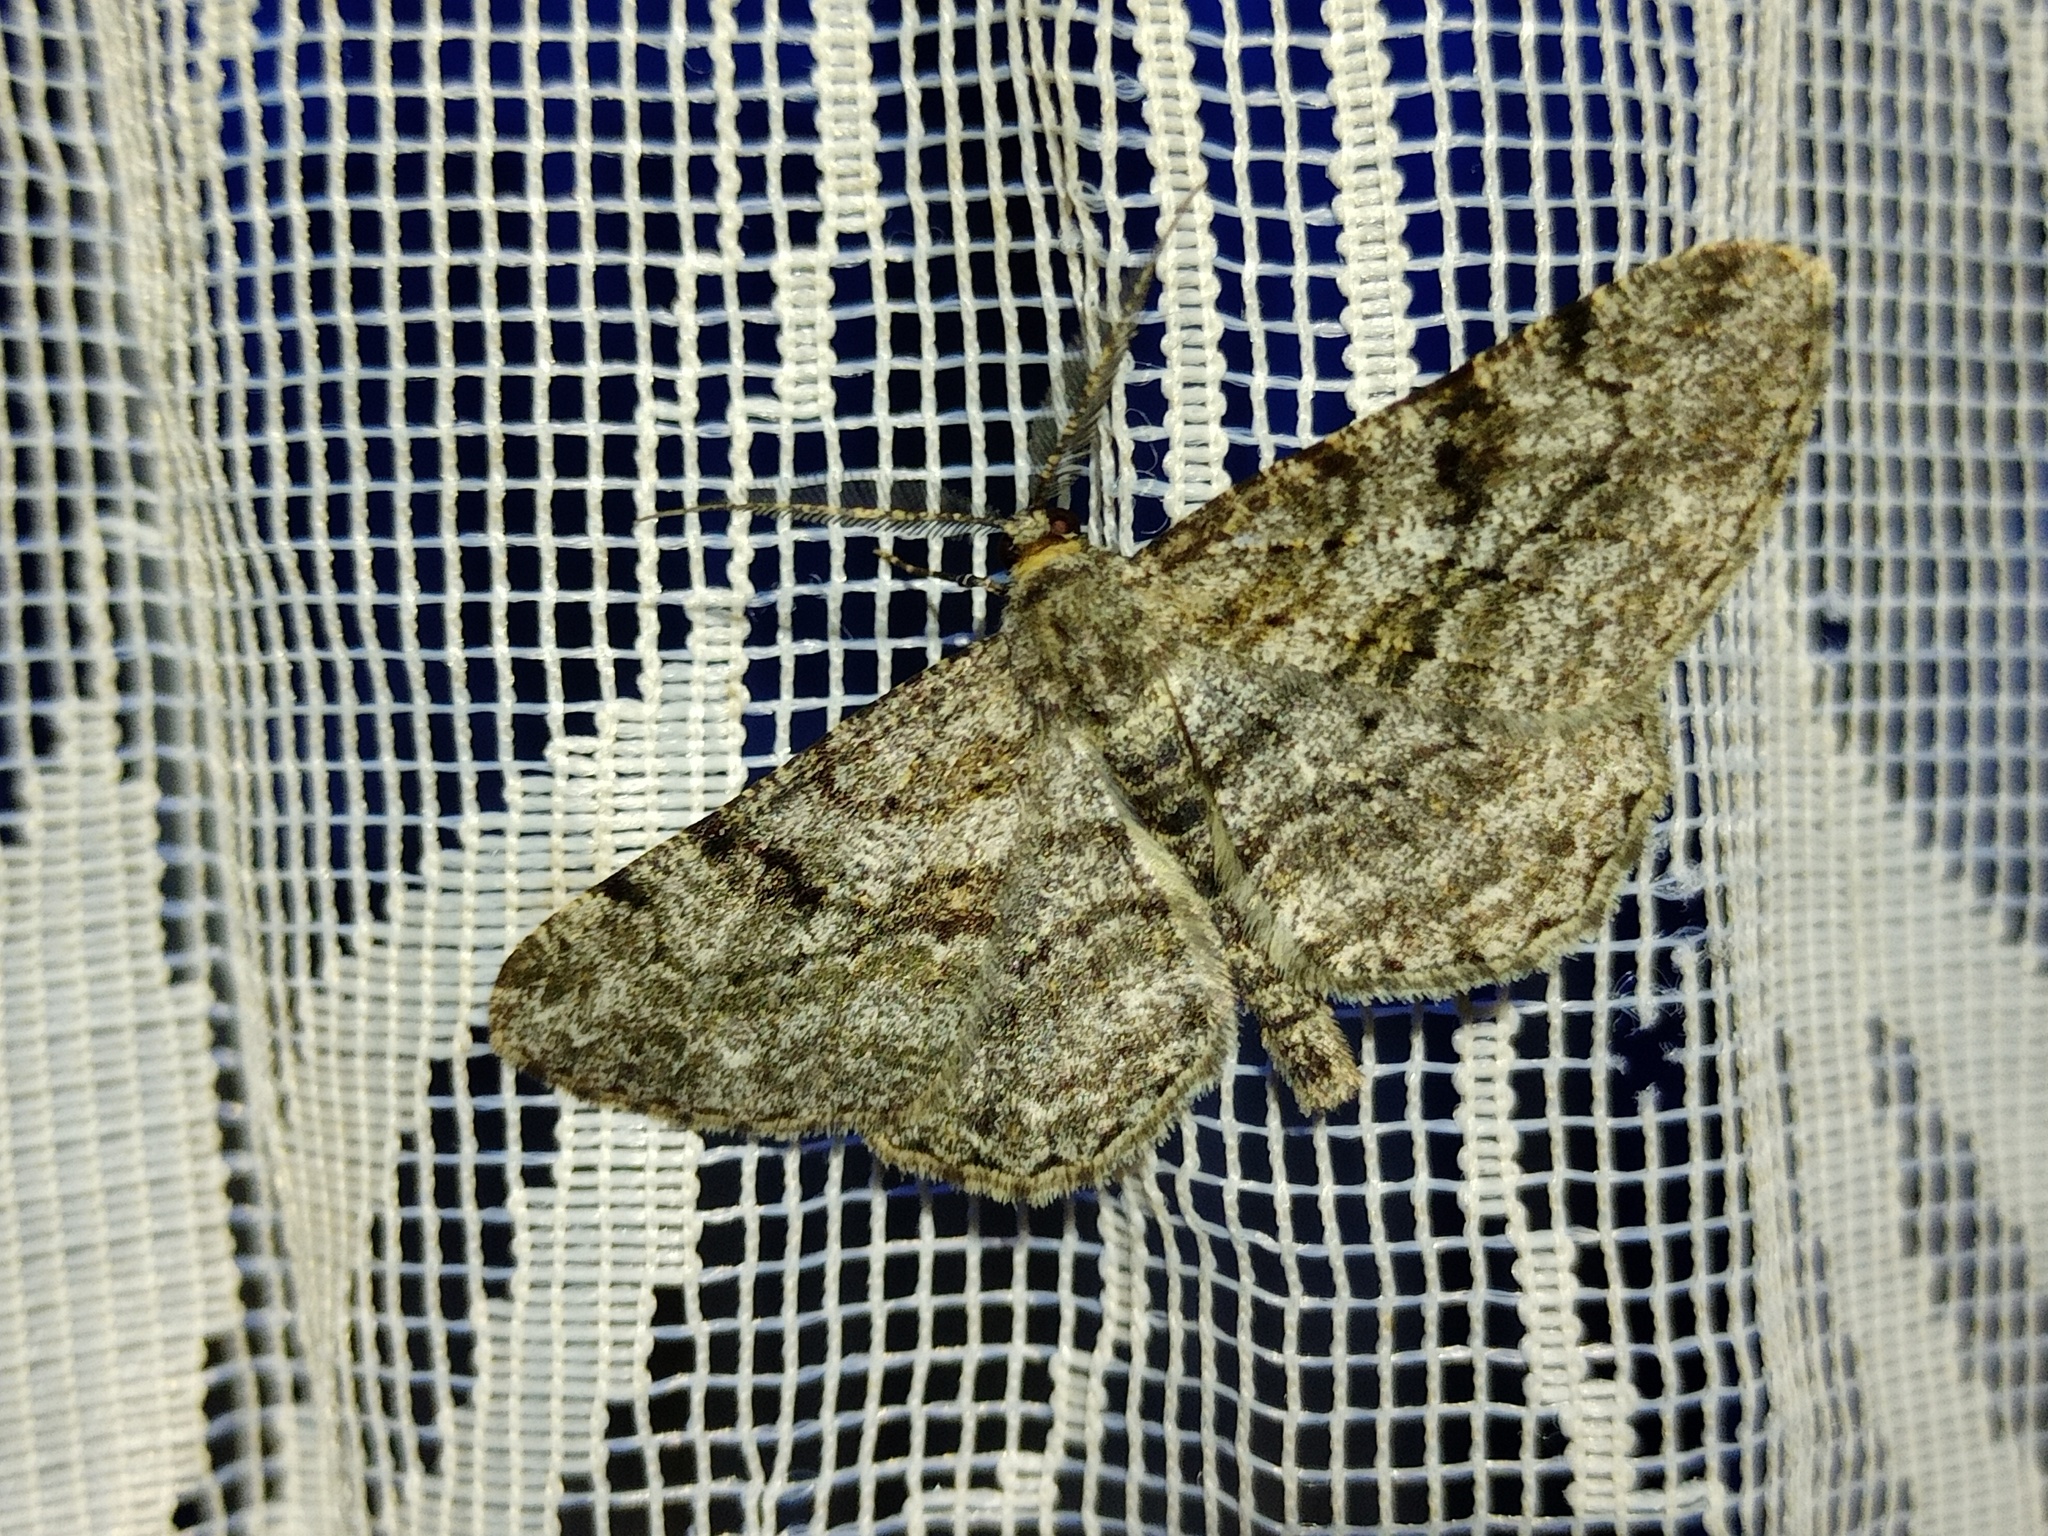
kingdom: Animalia
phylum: Arthropoda
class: Insecta
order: Lepidoptera
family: Geometridae
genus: Peribatodes
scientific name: Peribatodes rhomboidaria
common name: Willow beauty
